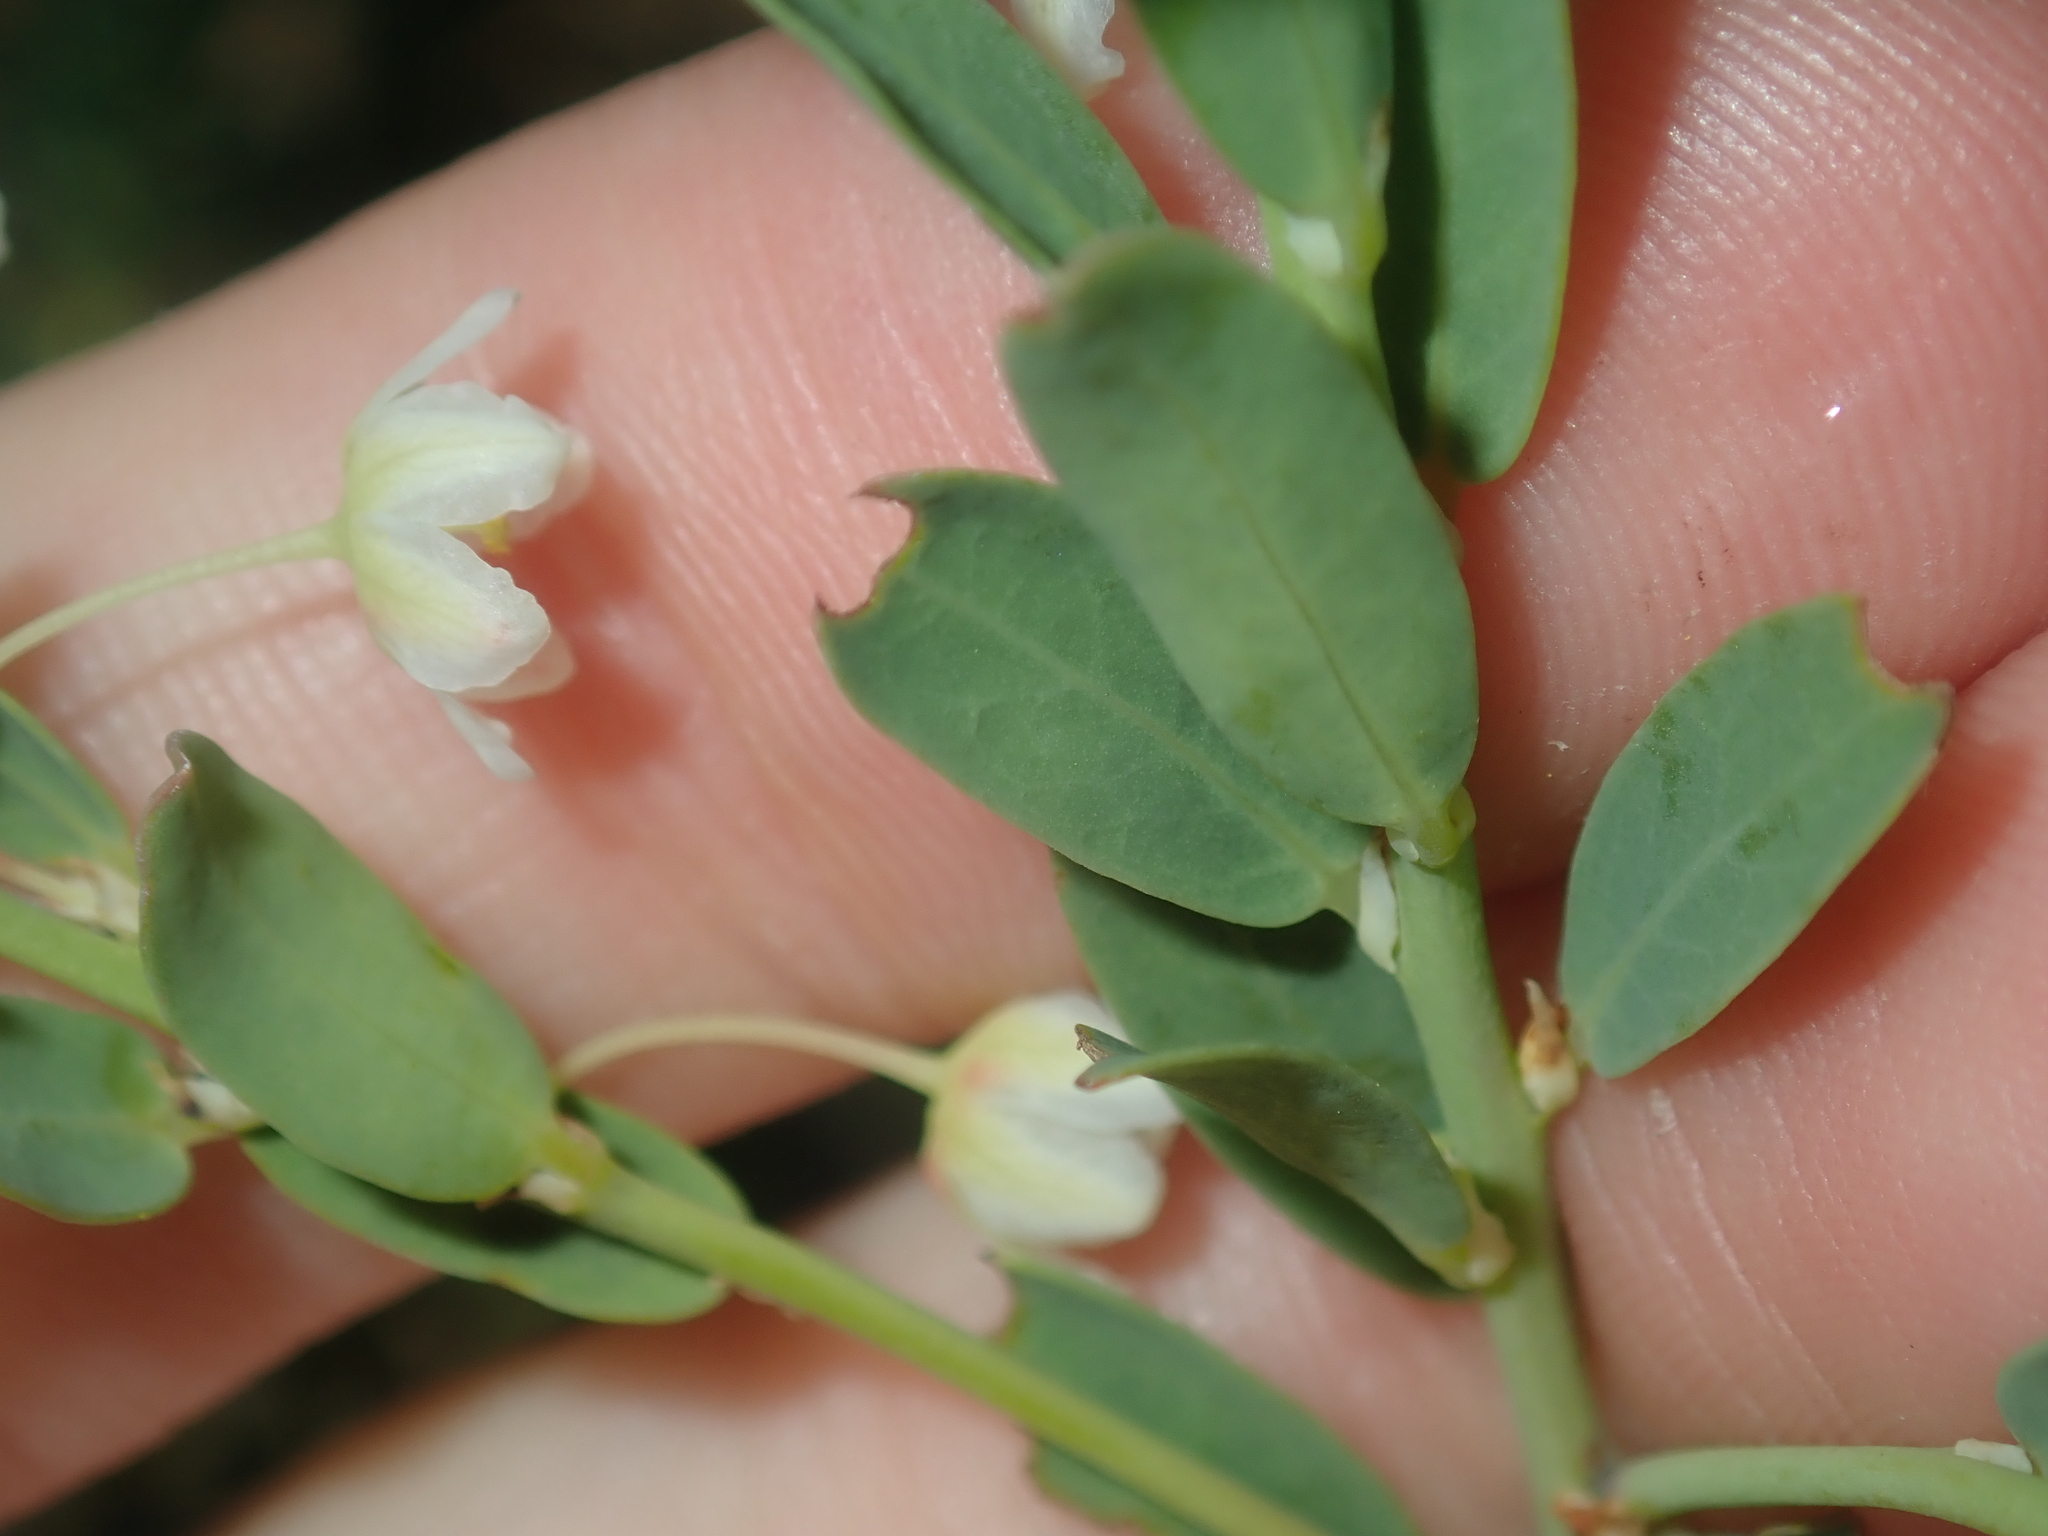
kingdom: Plantae
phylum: Tracheophyta
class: Magnoliopsida
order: Malpighiales
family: Phyllanthaceae
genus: Phyllanthus
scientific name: Phyllanthus calycinus
